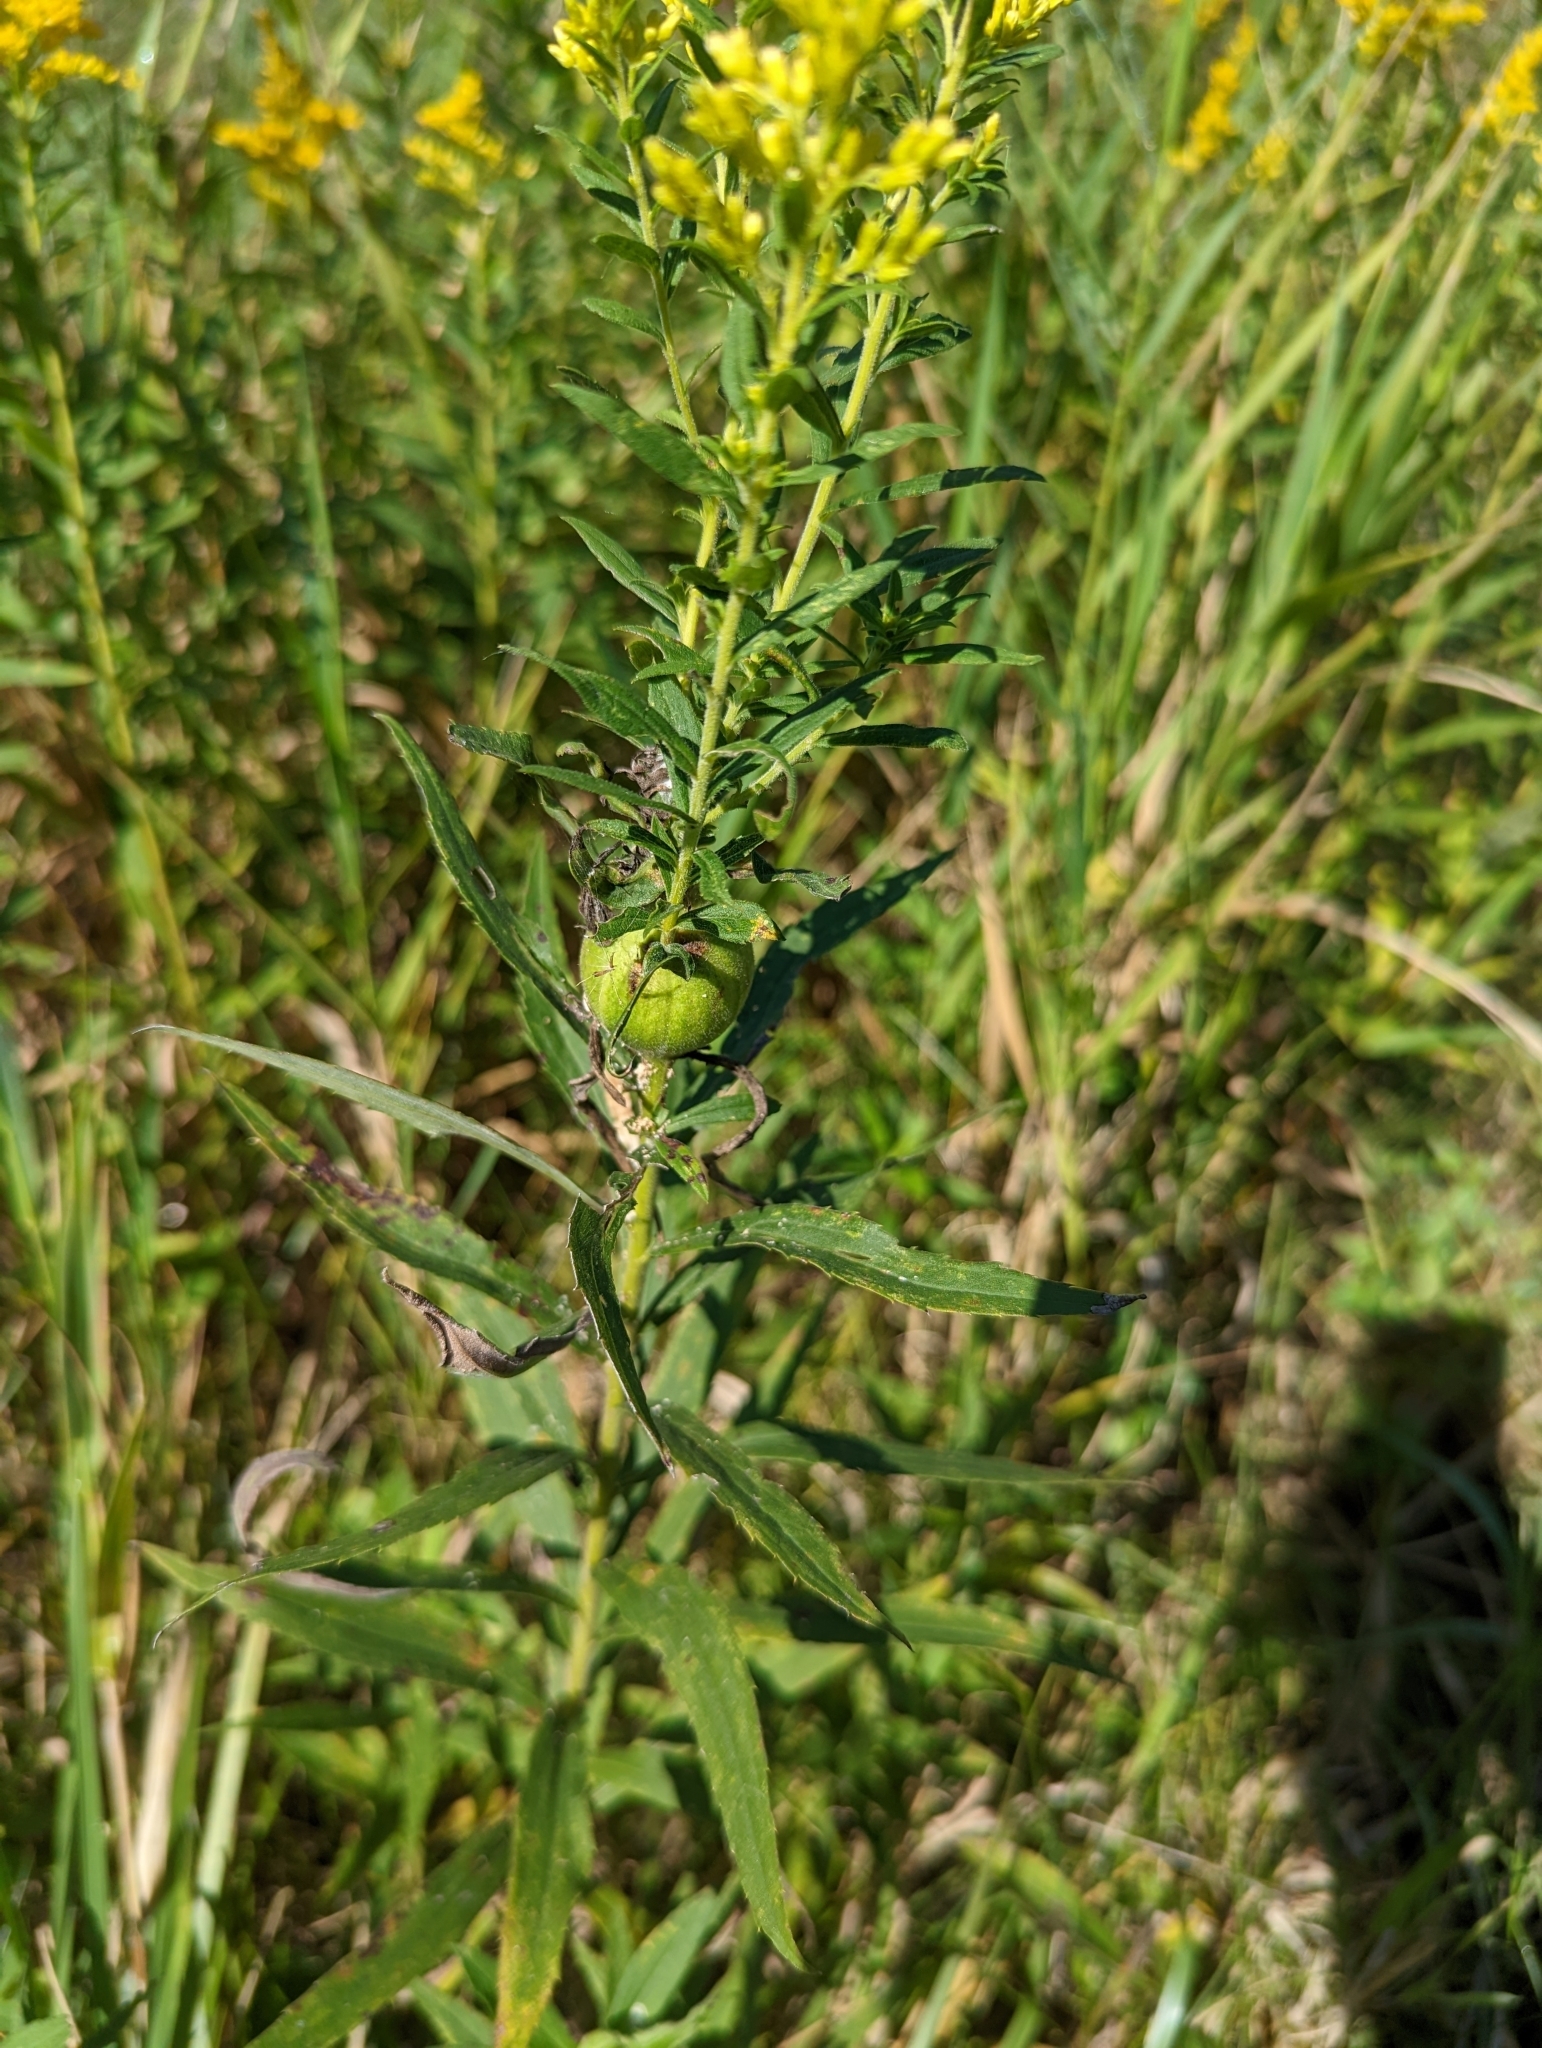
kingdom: Animalia
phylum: Arthropoda
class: Insecta
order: Diptera
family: Tephritidae
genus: Eurosta
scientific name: Eurosta solidaginis
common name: Goldenrod gall fly
